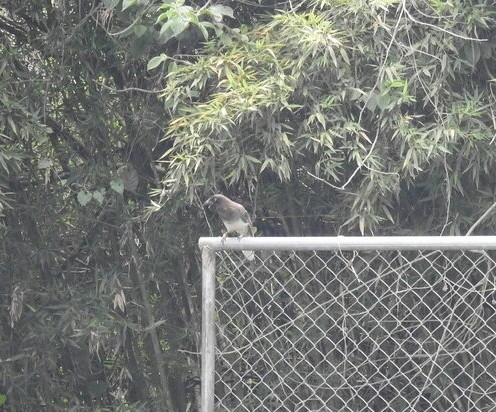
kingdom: Animalia
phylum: Chordata
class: Aves
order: Passeriformes
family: Corvidae
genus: Psilorhinus
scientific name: Psilorhinus morio
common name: Brown jay
